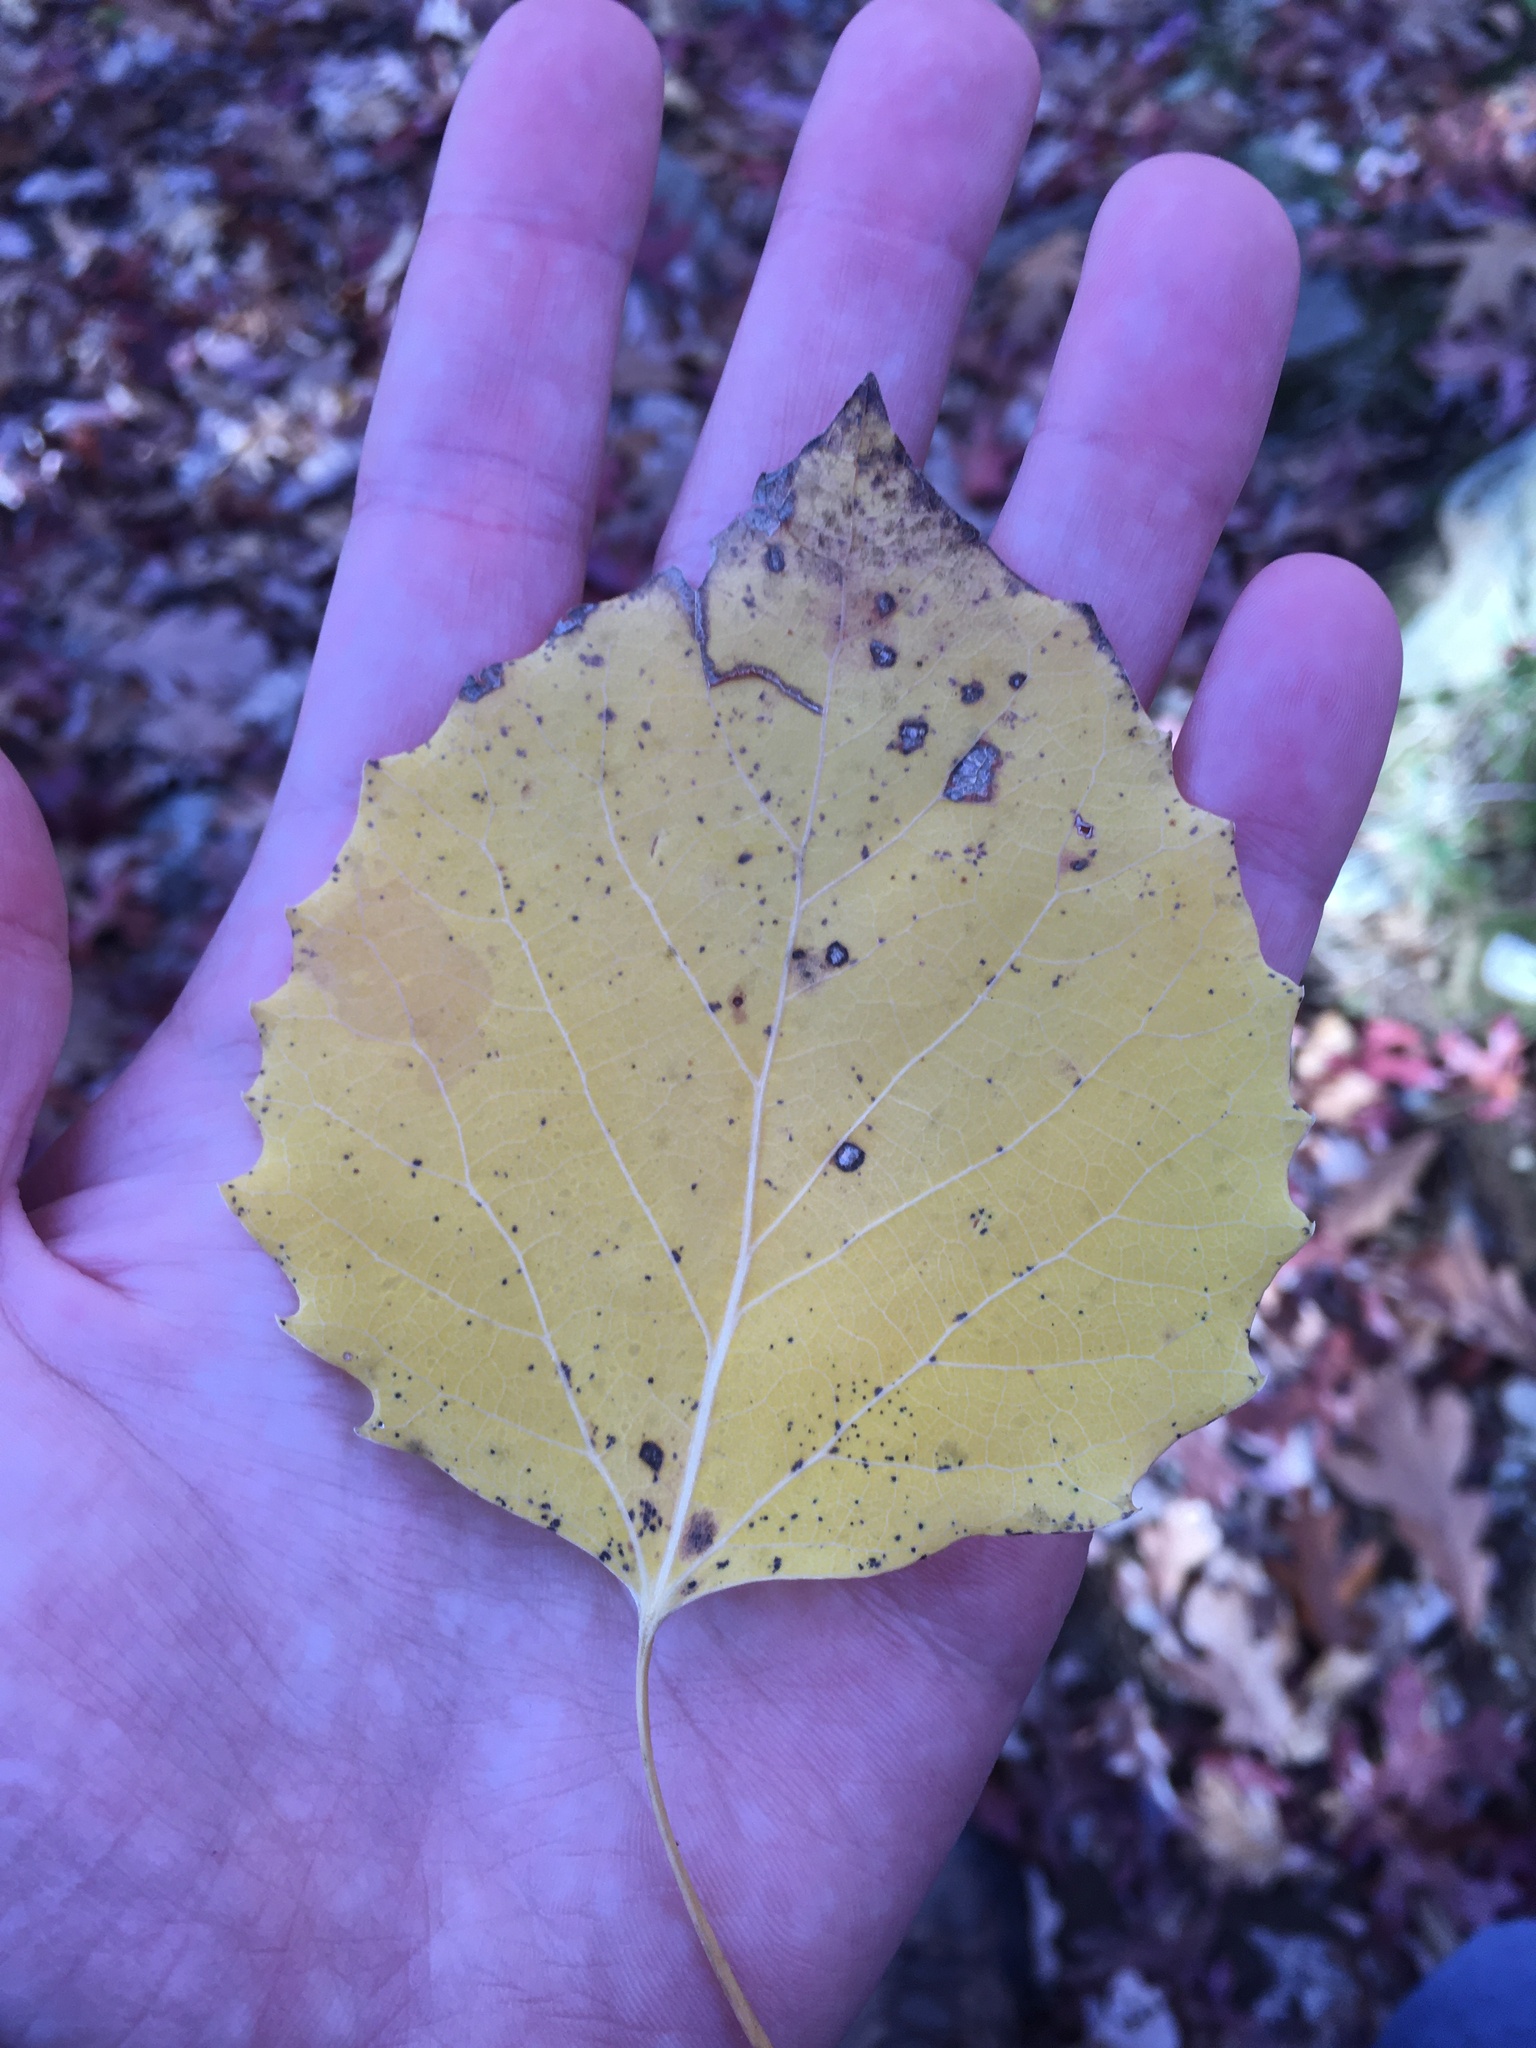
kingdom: Plantae
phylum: Tracheophyta
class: Magnoliopsida
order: Malpighiales
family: Salicaceae
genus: Populus
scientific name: Populus grandidentata
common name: Bigtooth aspen
